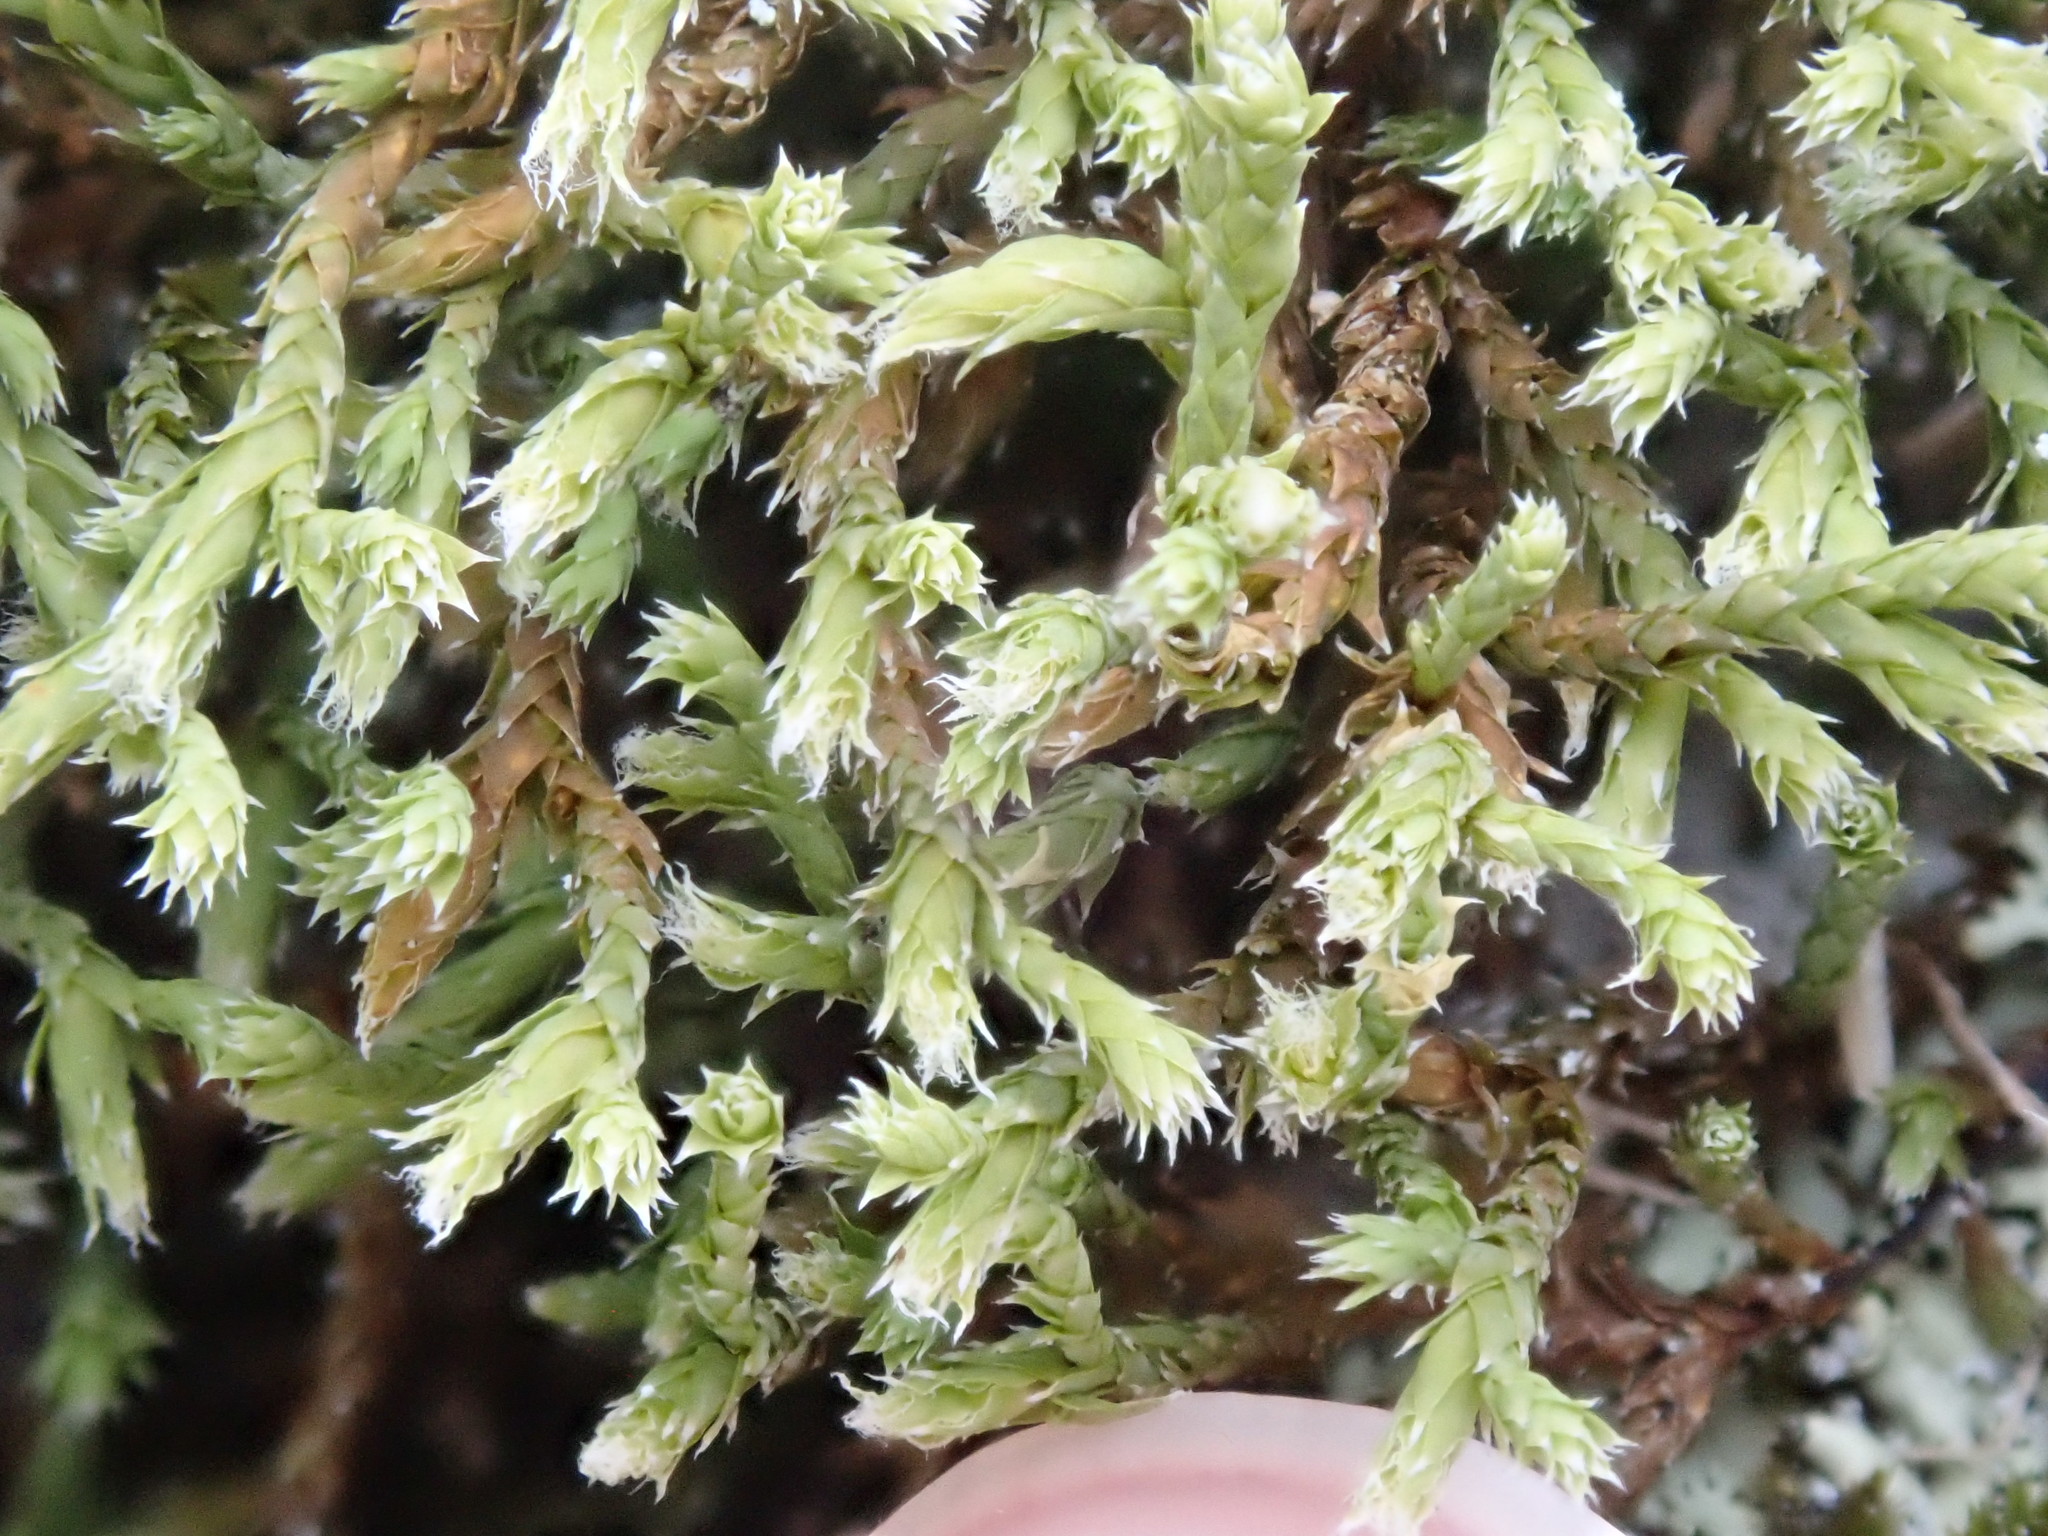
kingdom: Plantae
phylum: Bryophyta
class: Bryopsida
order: Hedwigiales
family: Hedwigiaceae
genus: Hedwigia
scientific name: Hedwigia ciliata
